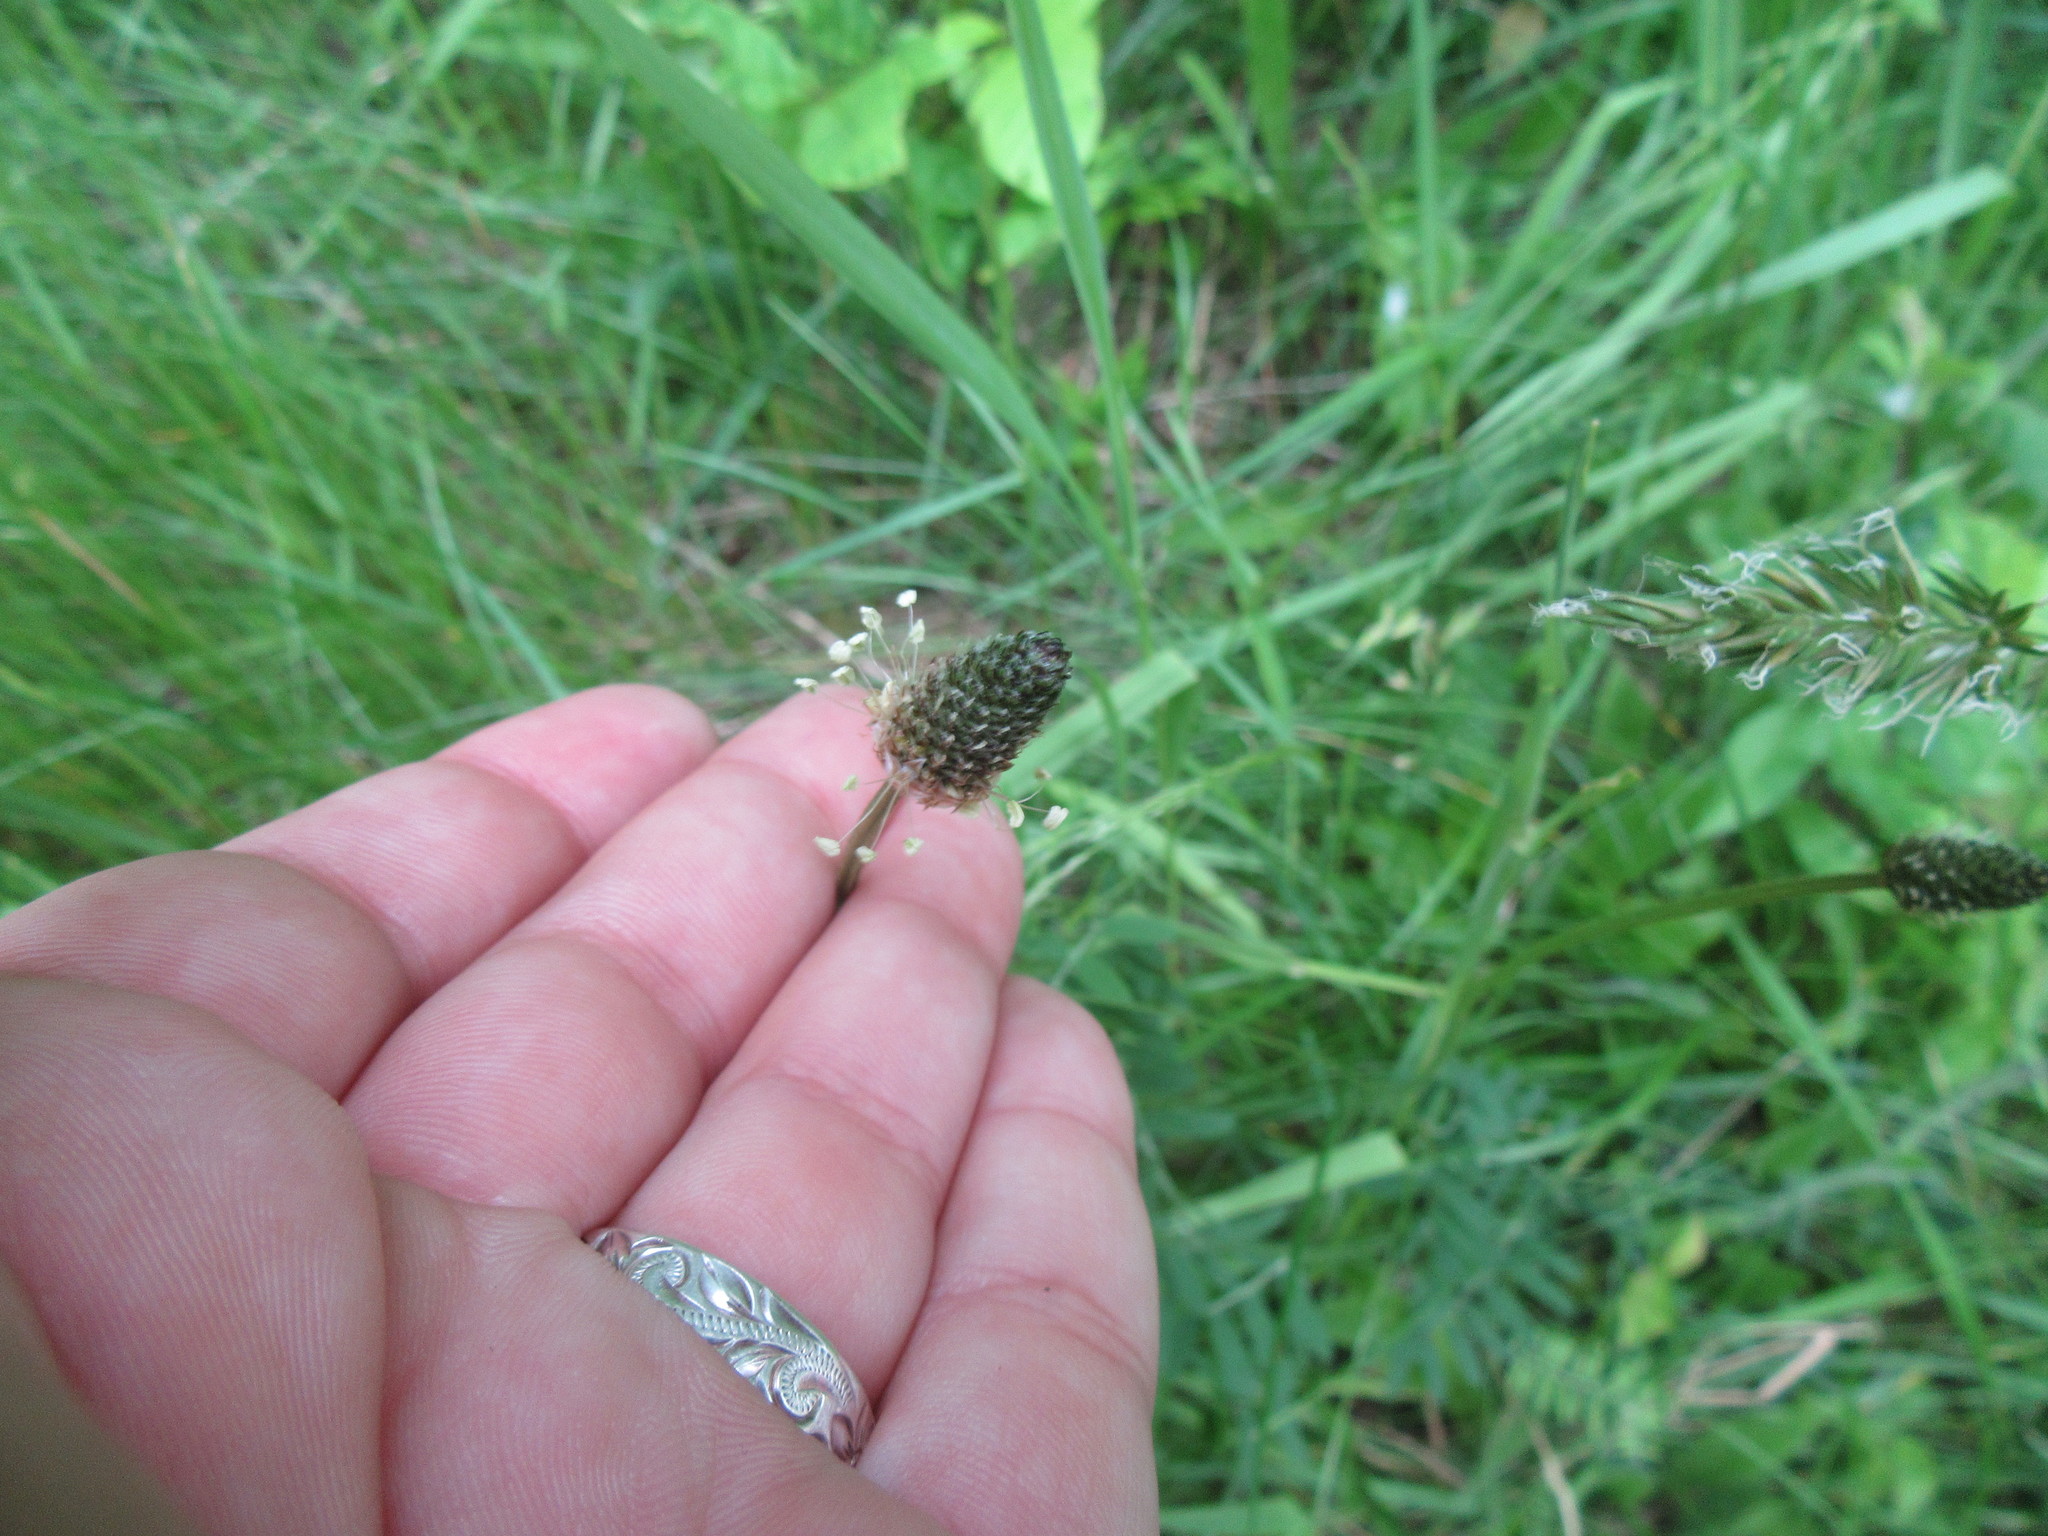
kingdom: Plantae
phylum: Tracheophyta
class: Magnoliopsida
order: Lamiales
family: Plantaginaceae
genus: Plantago
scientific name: Plantago lanceolata
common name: Ribwort plantain
